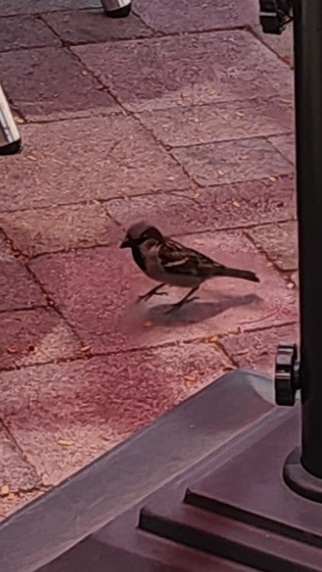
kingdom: Animalia
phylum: Chordata
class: Aves
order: Passeriformes
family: Passeridae
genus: Passer
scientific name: Passer domesticus
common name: House sparrow
